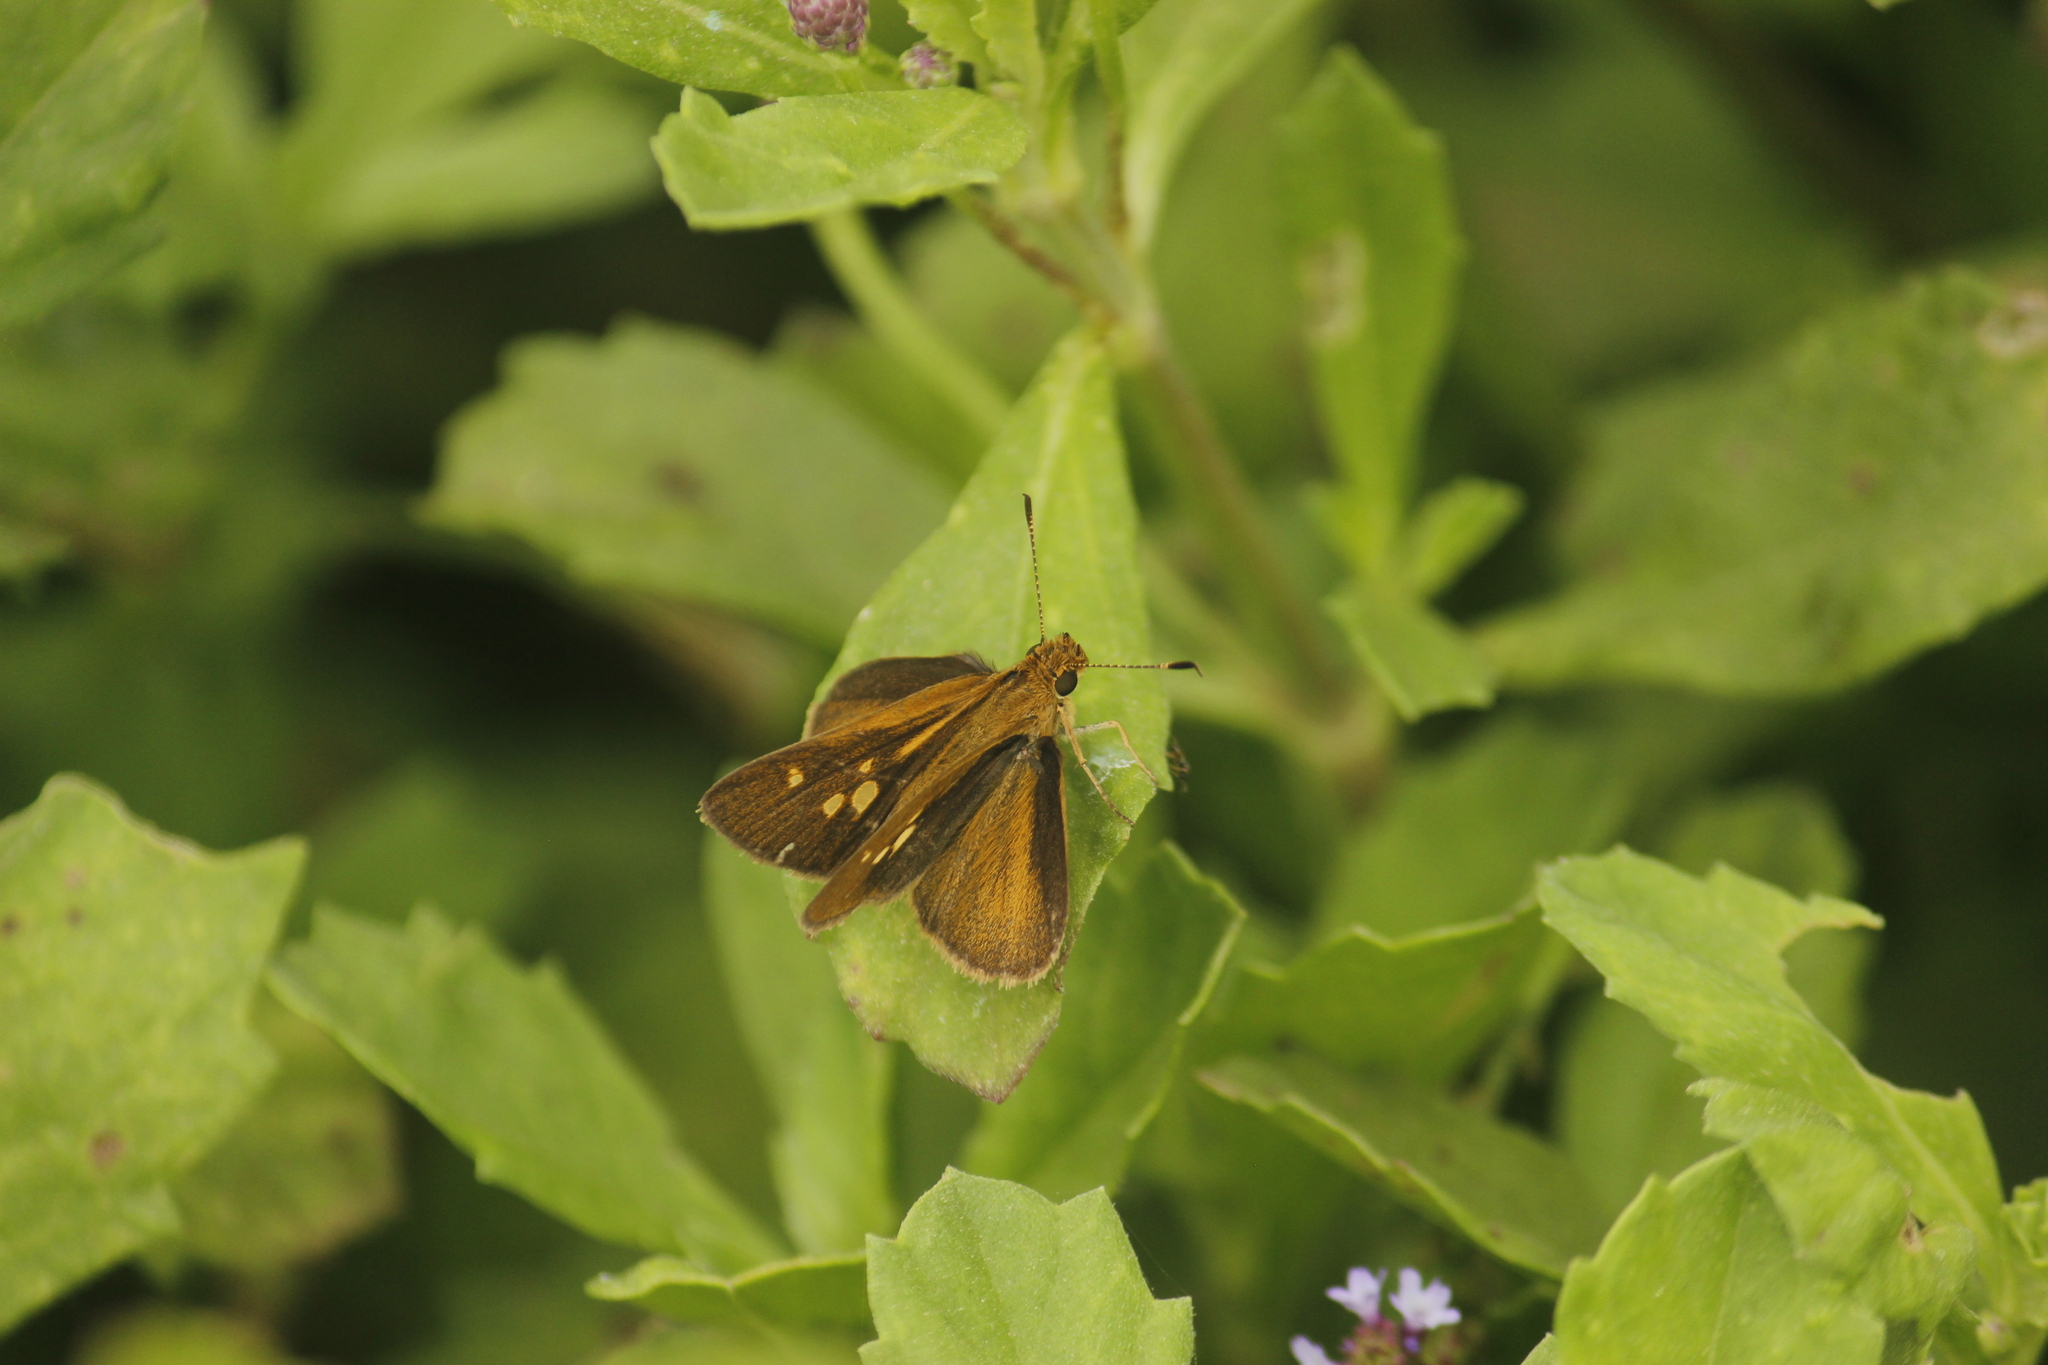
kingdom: Animalia
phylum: Arthropoda
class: Insecta
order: Lepidoptera
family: Hesperiidae
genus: Vehilius
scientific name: Vehilius
